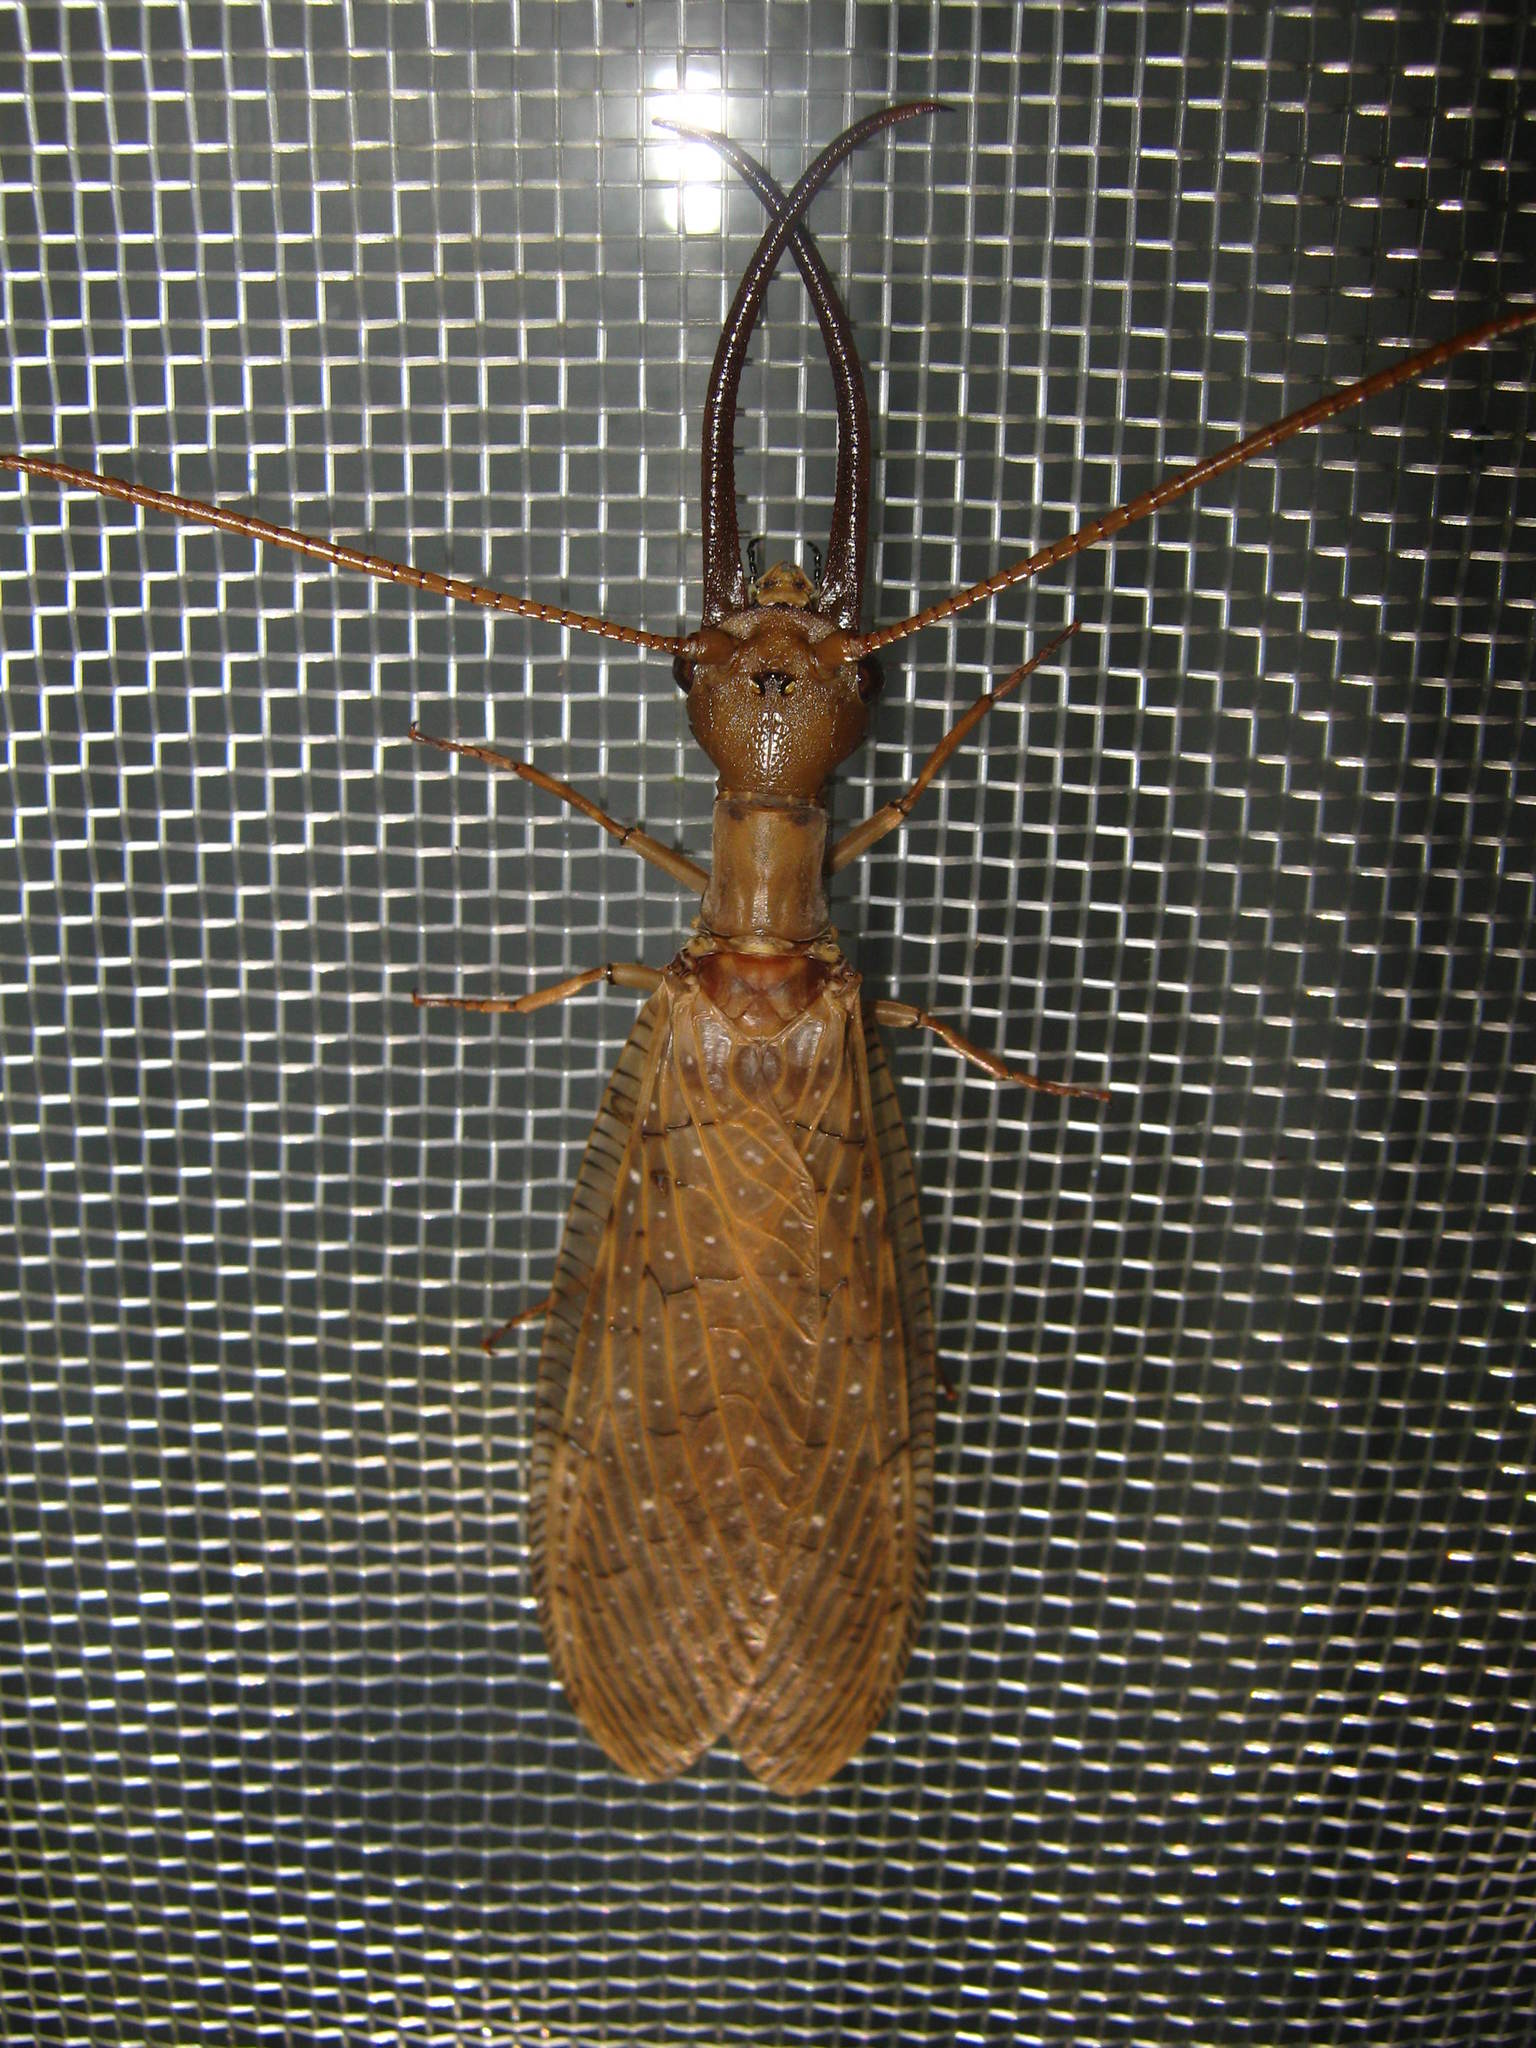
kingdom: Animalia
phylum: Arthropoda
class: Insecta
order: Megaloptera
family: Corydalidae
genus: Corydalus
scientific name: Corydalus luteus
